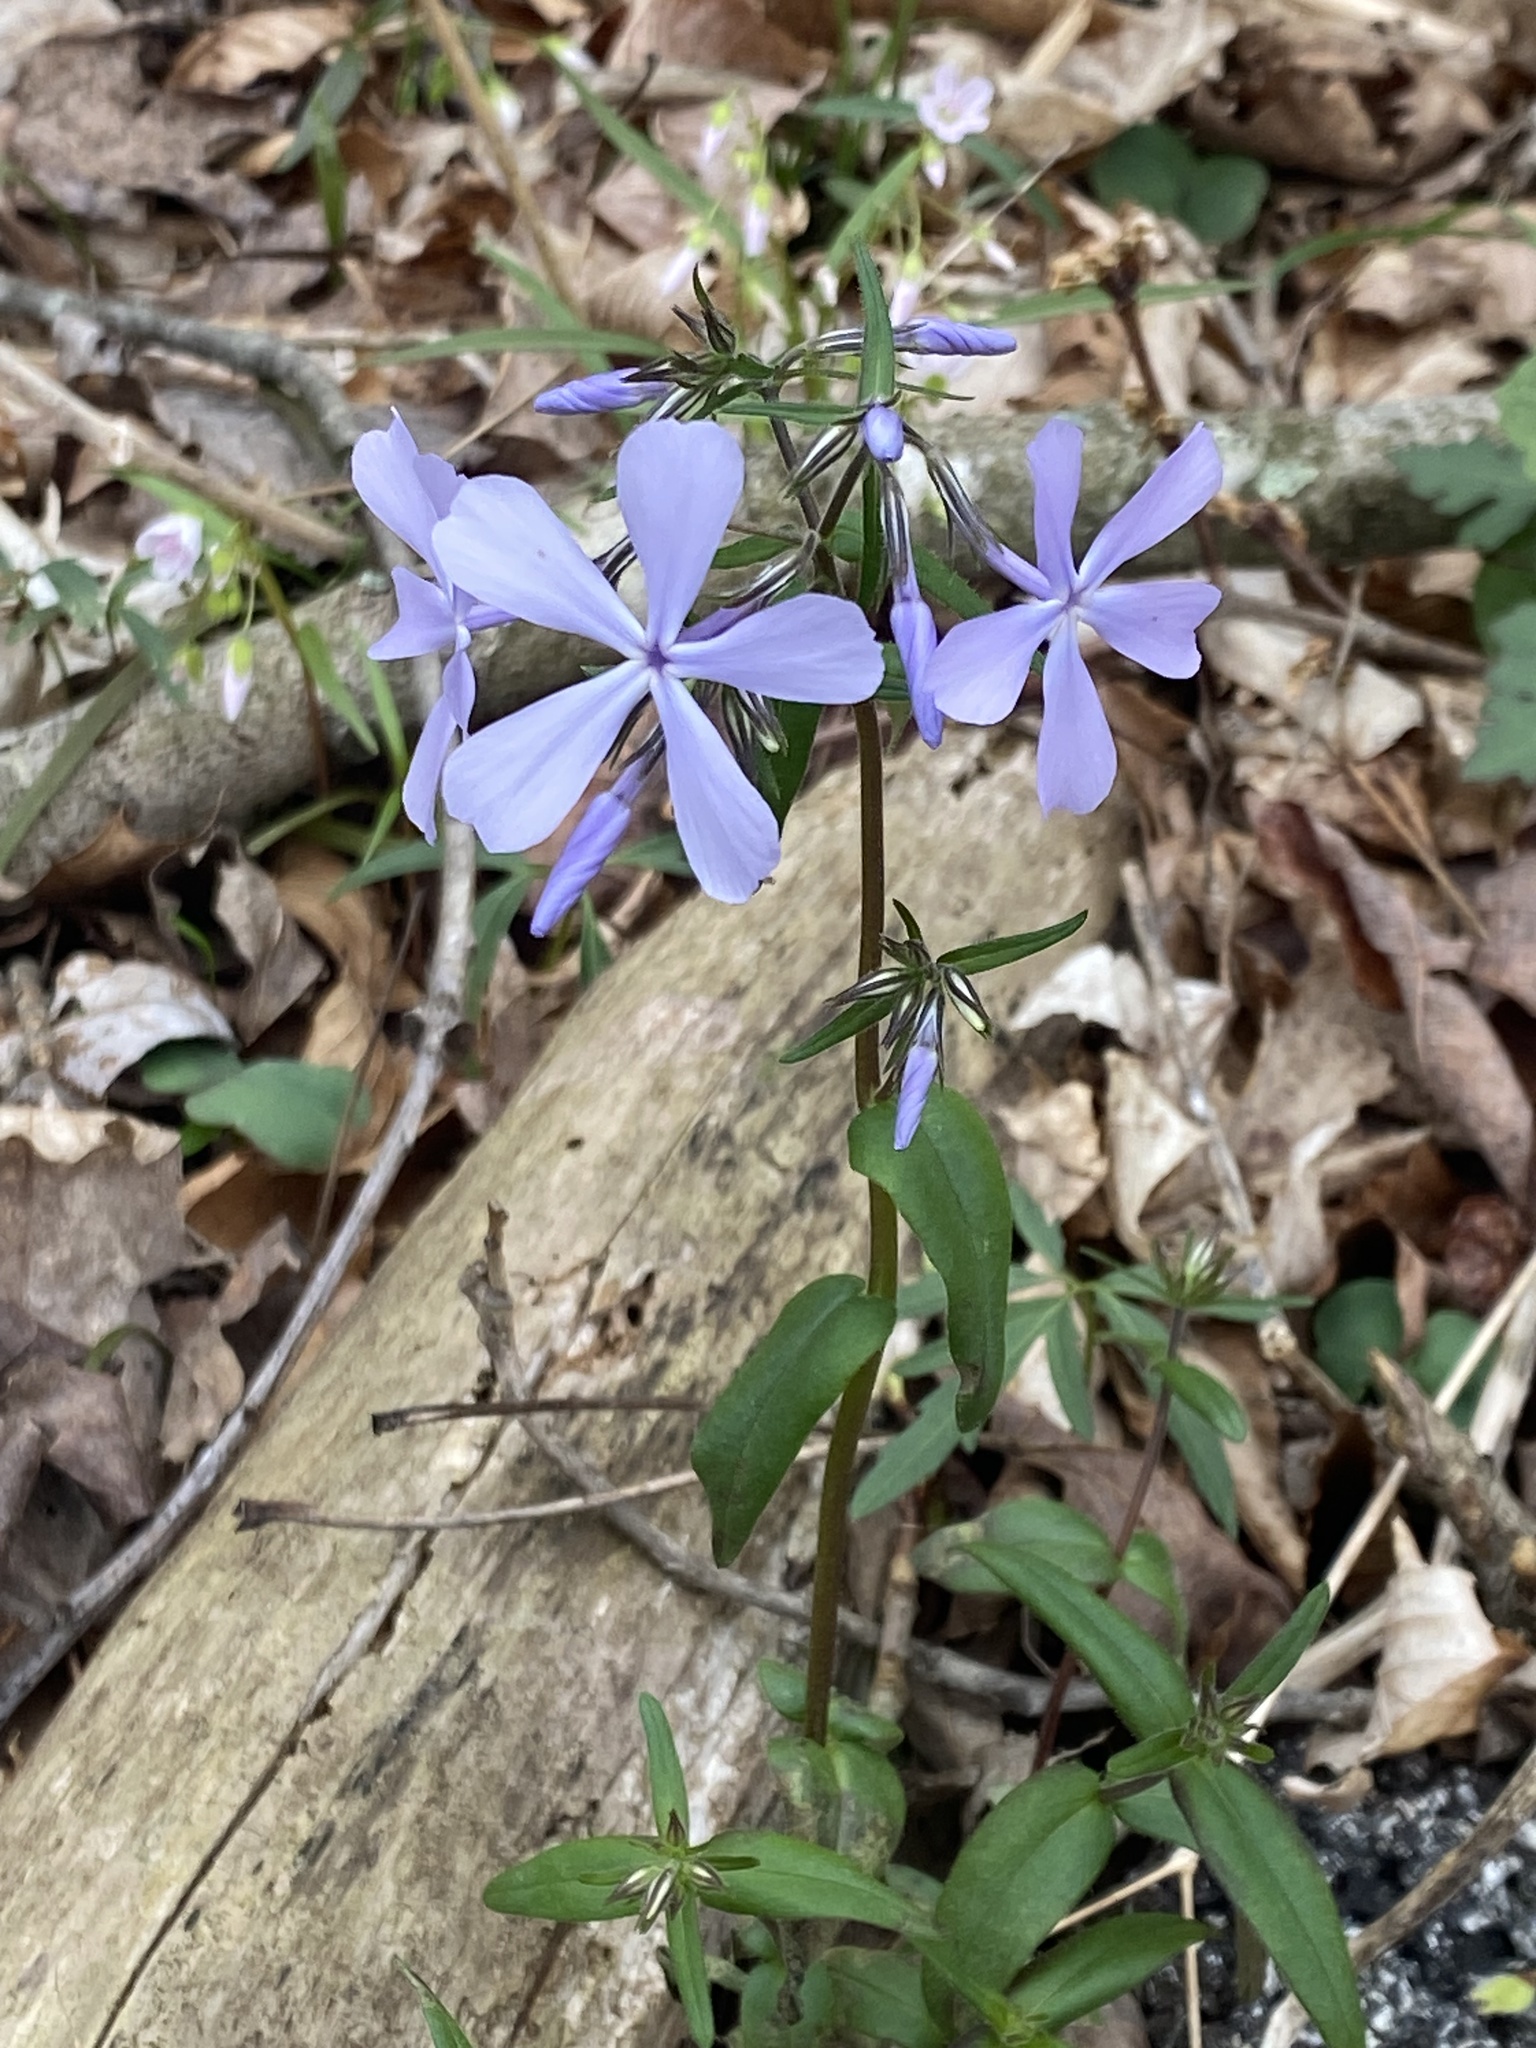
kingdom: Plantae
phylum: Tracheophyta
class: Magnoliopsida
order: Ericales
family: Polemoniaceae
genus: Phlox
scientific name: Phlox divaricata
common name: Blue phlox
